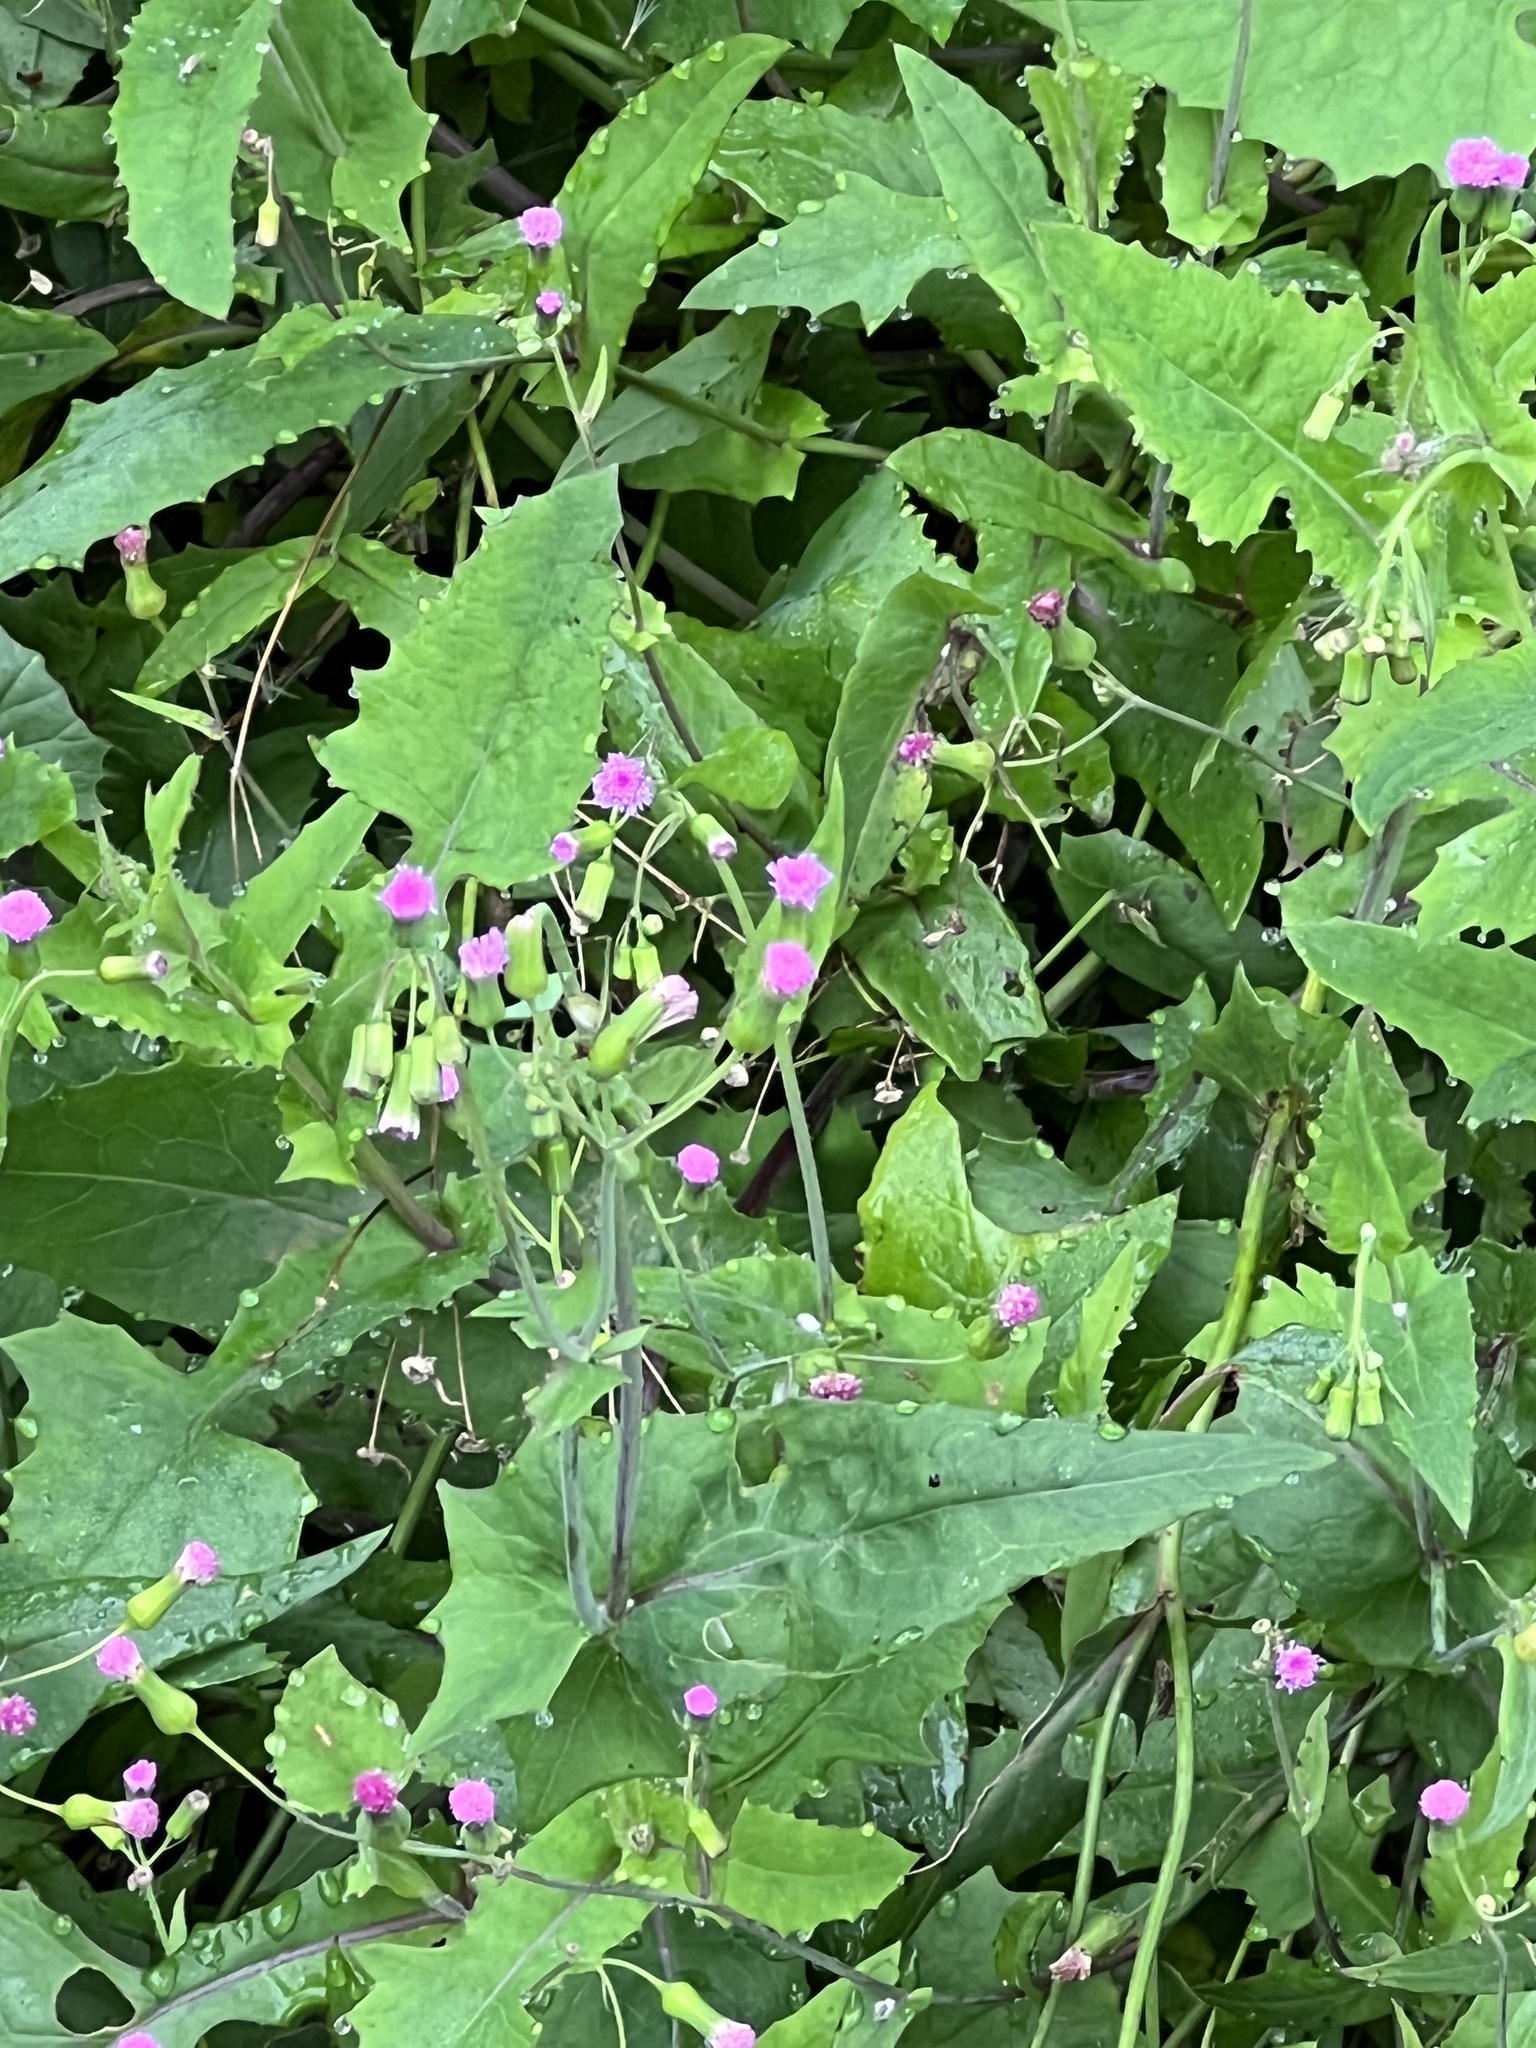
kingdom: Plantae
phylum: Tracheophyta
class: Magnoliopsida
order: Asterales
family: Asteraceae
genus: Emilia
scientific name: Emilia sonchifolia
